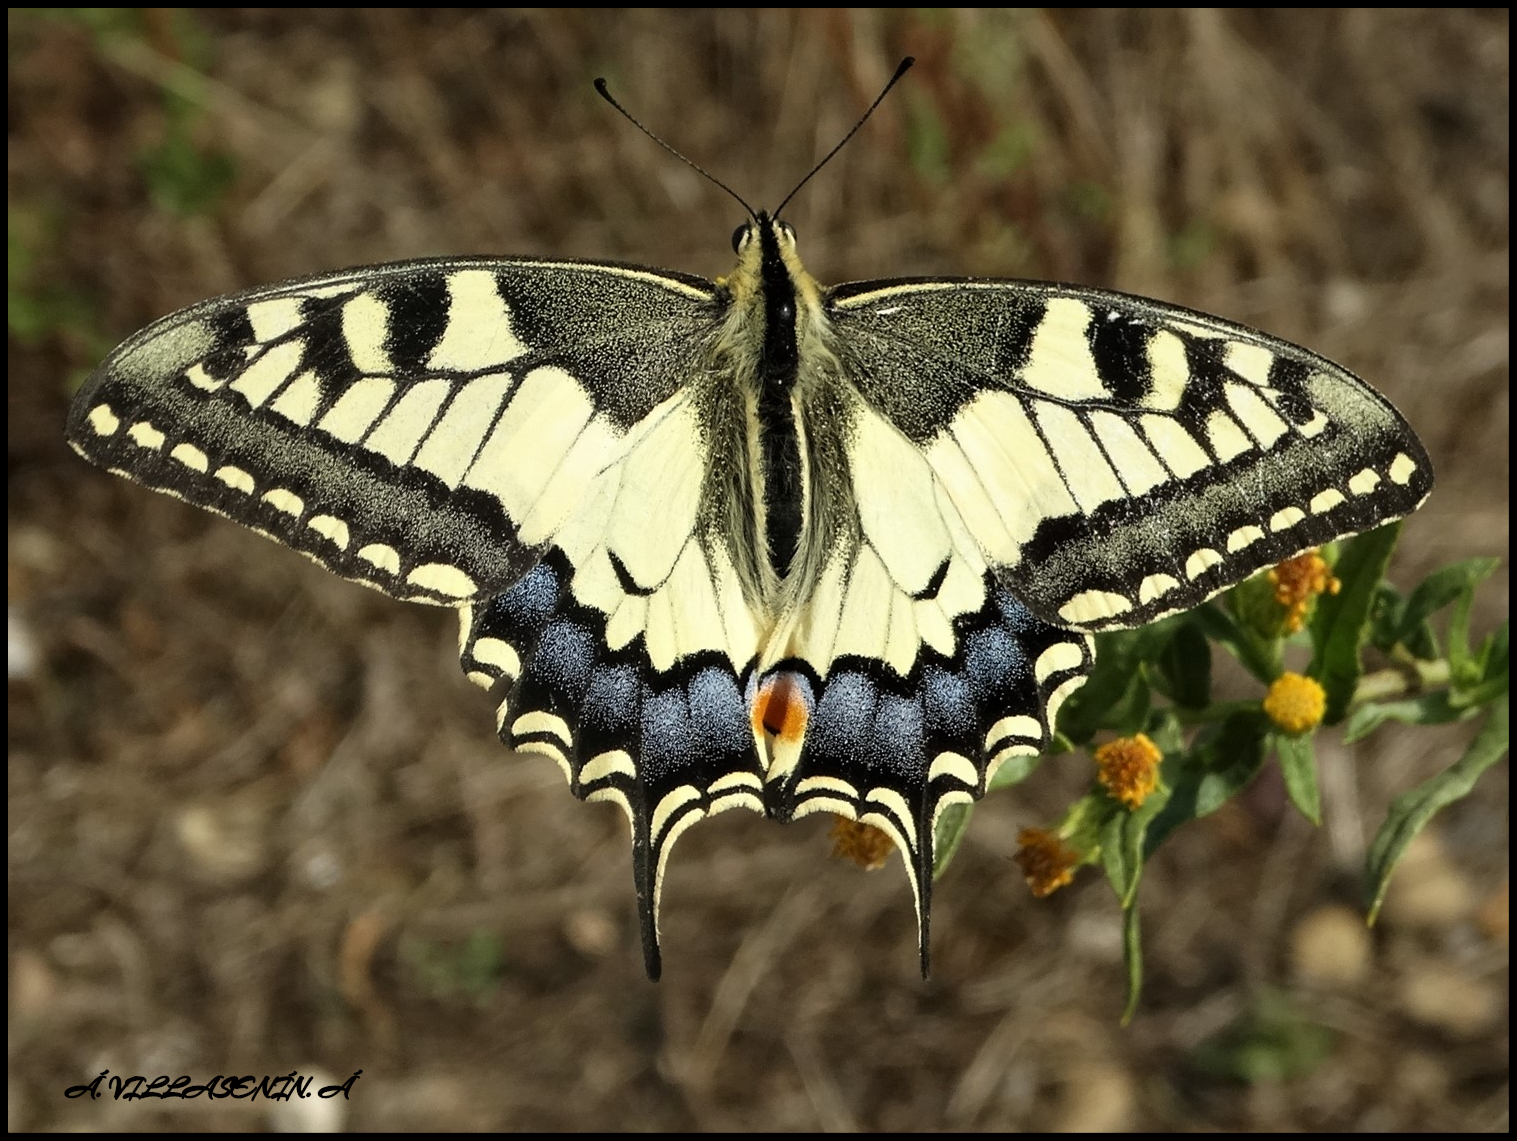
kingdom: Animalia
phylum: Arthropoda
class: Insecta
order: Lepidoptera
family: Papilionidae
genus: Papilio
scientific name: Papilio machaon
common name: Swallowtail
